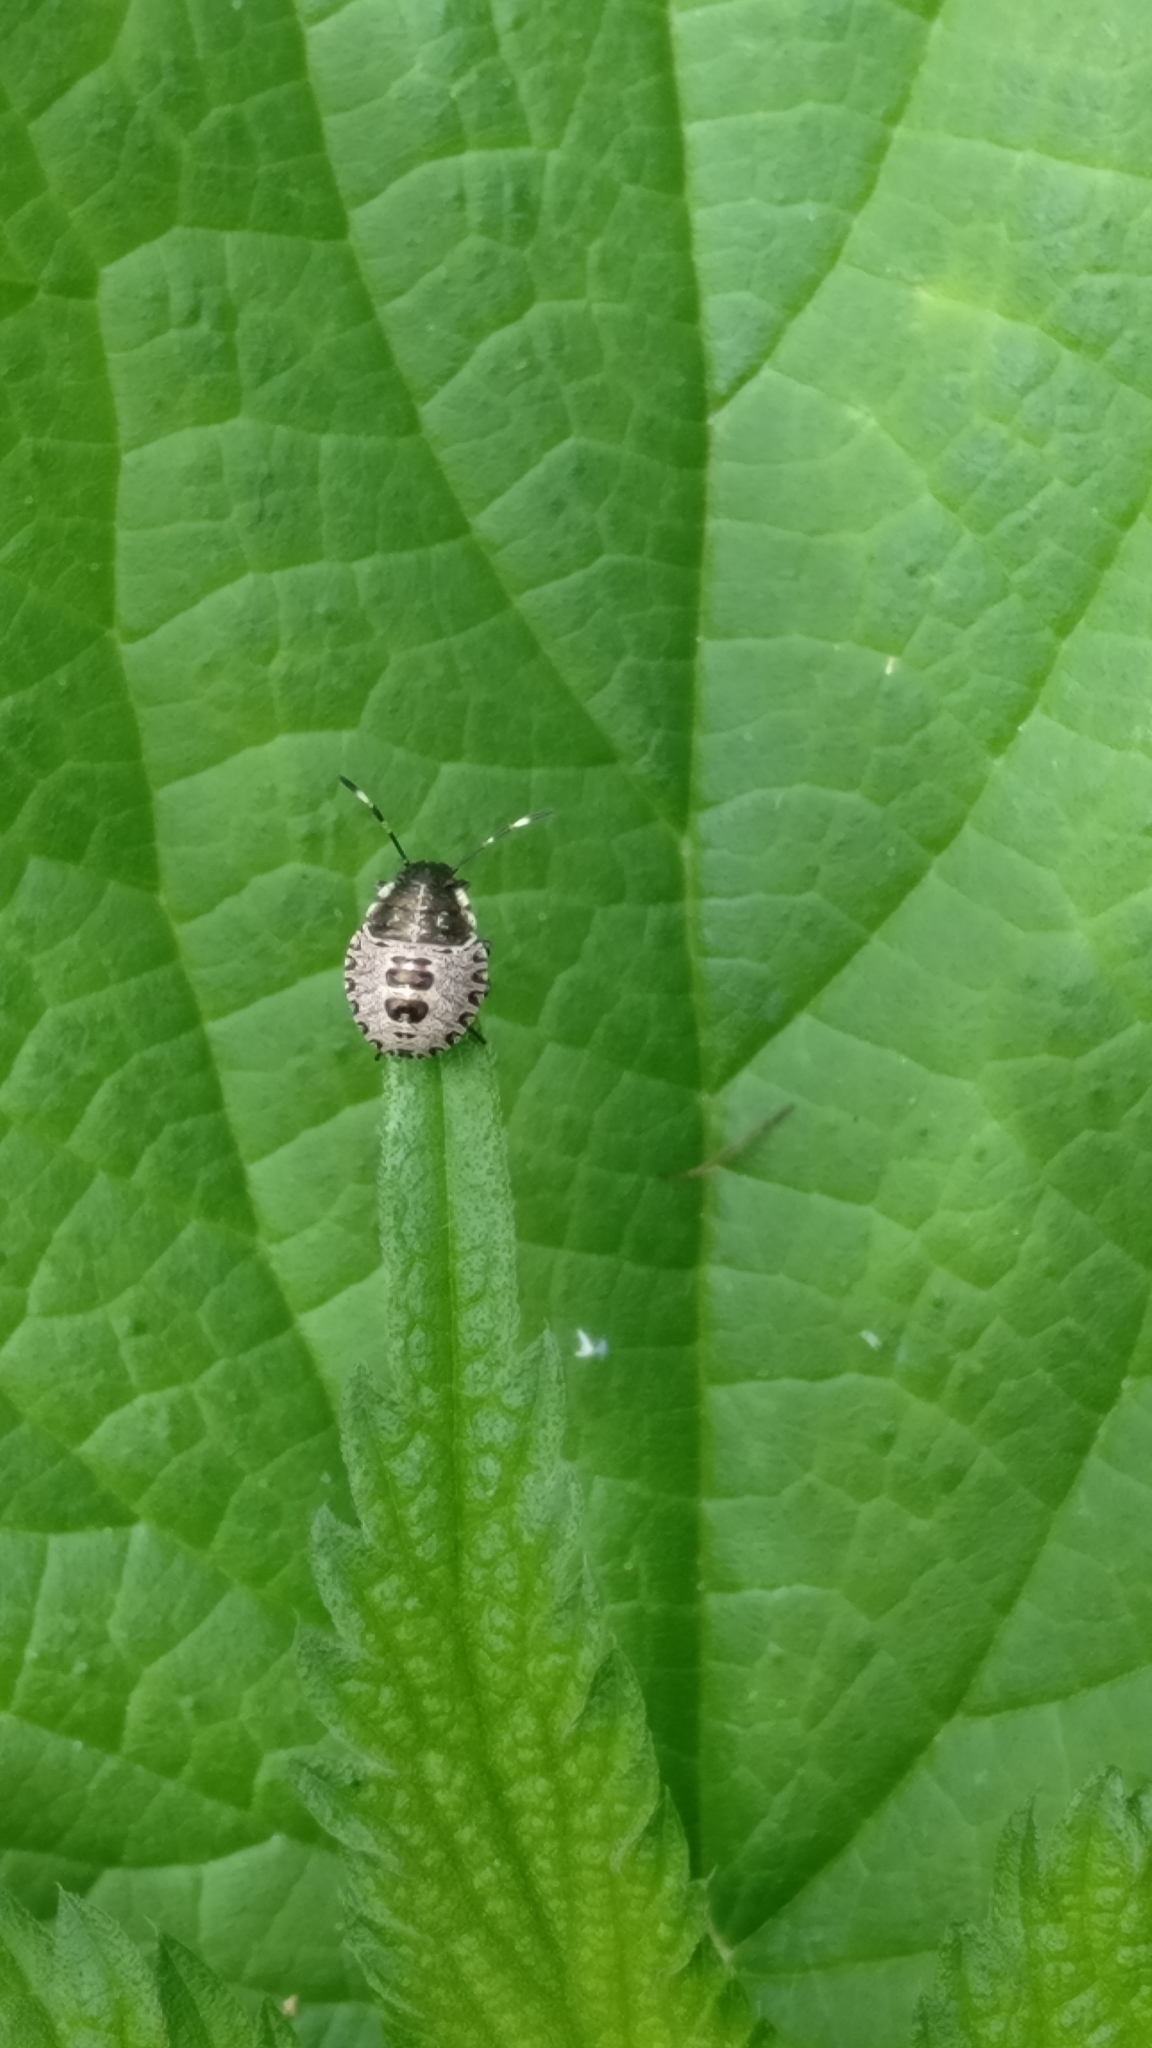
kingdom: Animalia
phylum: Arthropoda
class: Insecta
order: Hemiptera
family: Pentatomidae
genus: Rhaphigaster
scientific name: Rhaphigaster nebulosa
